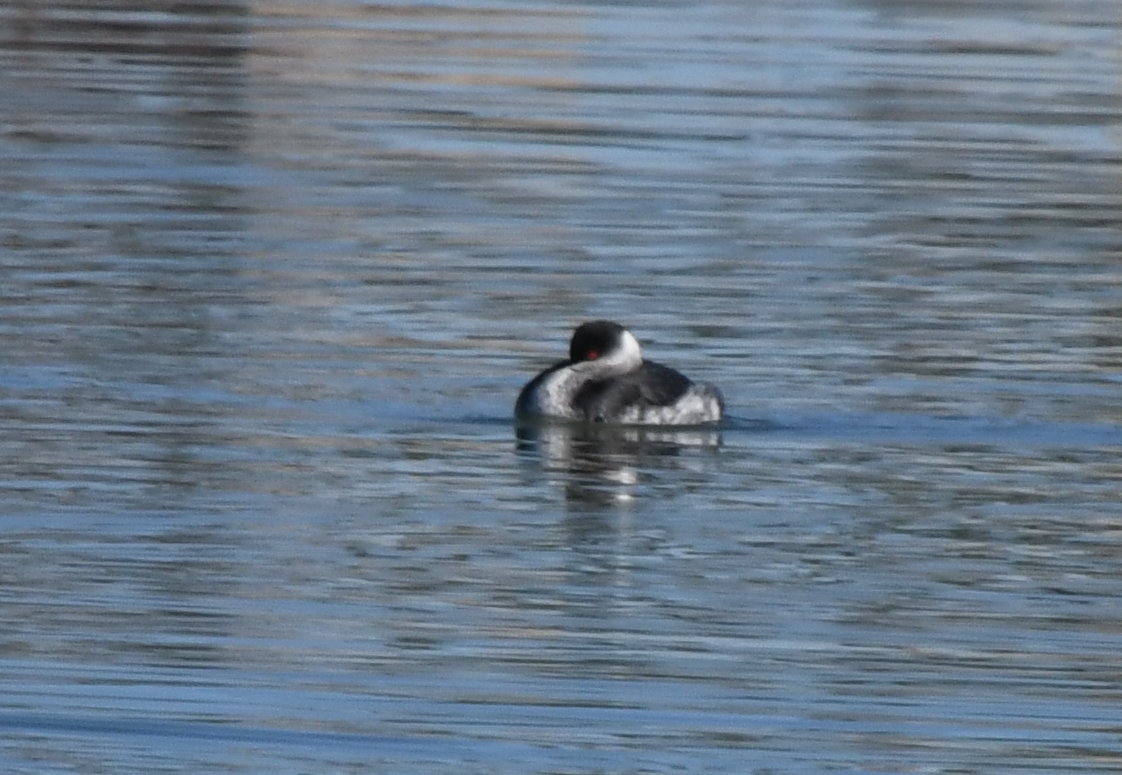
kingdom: Animalia
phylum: Chordata
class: Aves
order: Podicipediformes
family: Podicipedidae
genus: Podiceps
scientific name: Podiceps nigricollis
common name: Black-necked grebe
